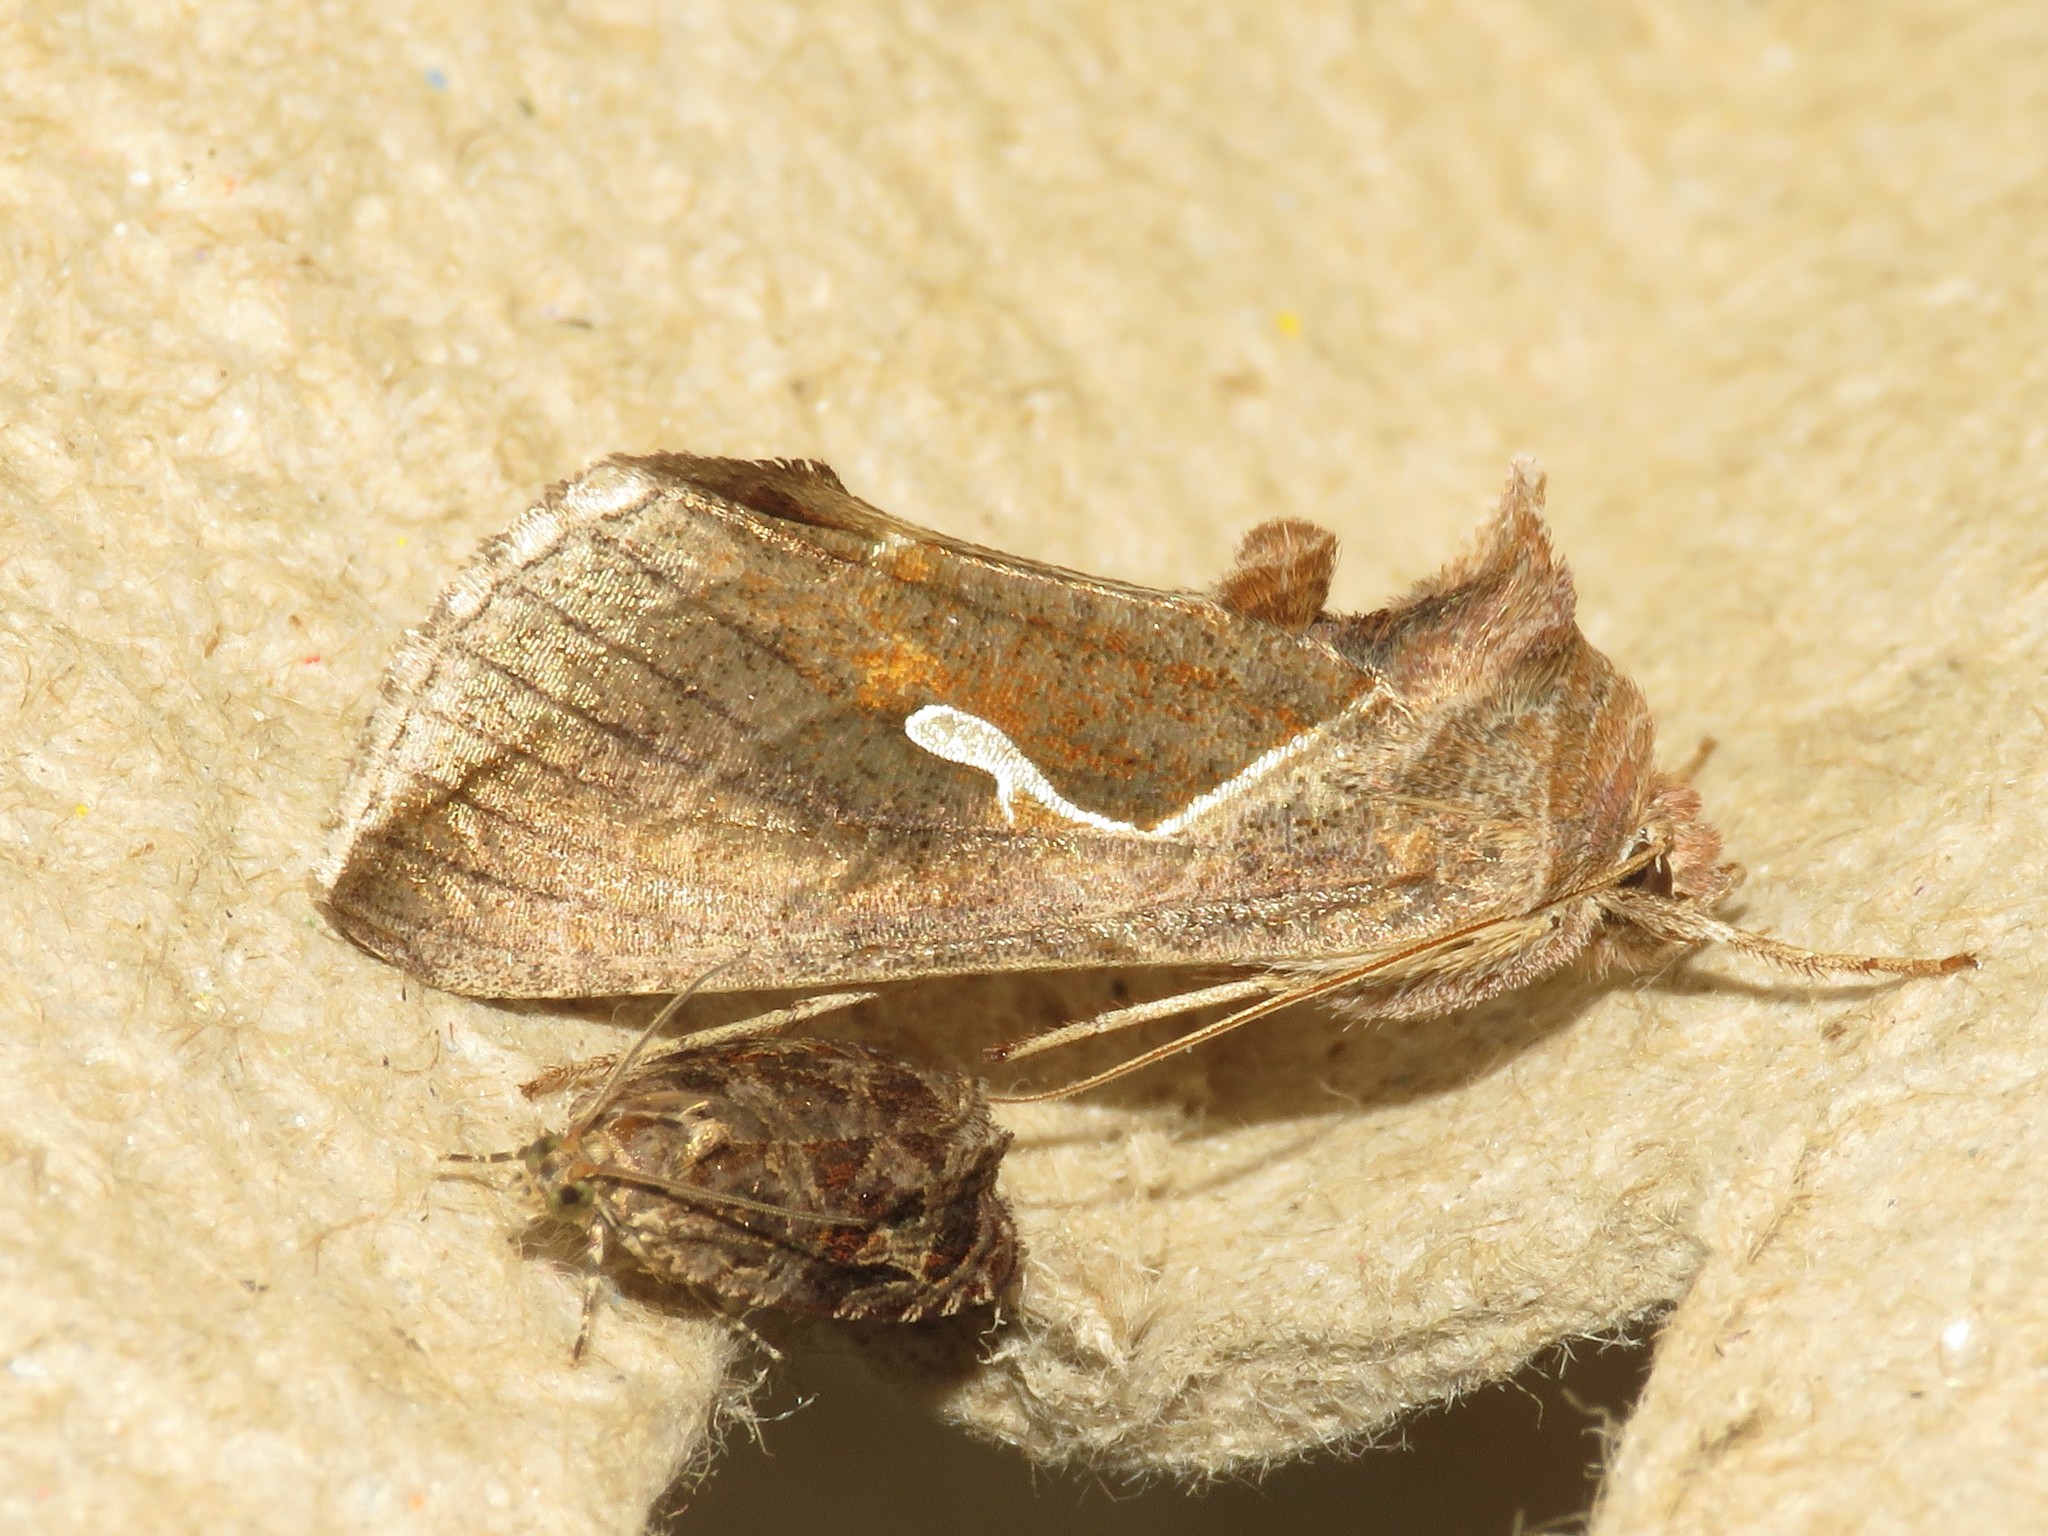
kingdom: Animalia
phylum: Arthropoda
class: Insecta
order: Lepidoptera
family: Noctuidae
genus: Anagrapha
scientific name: Anagrapha falcifera
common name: Celery looper
